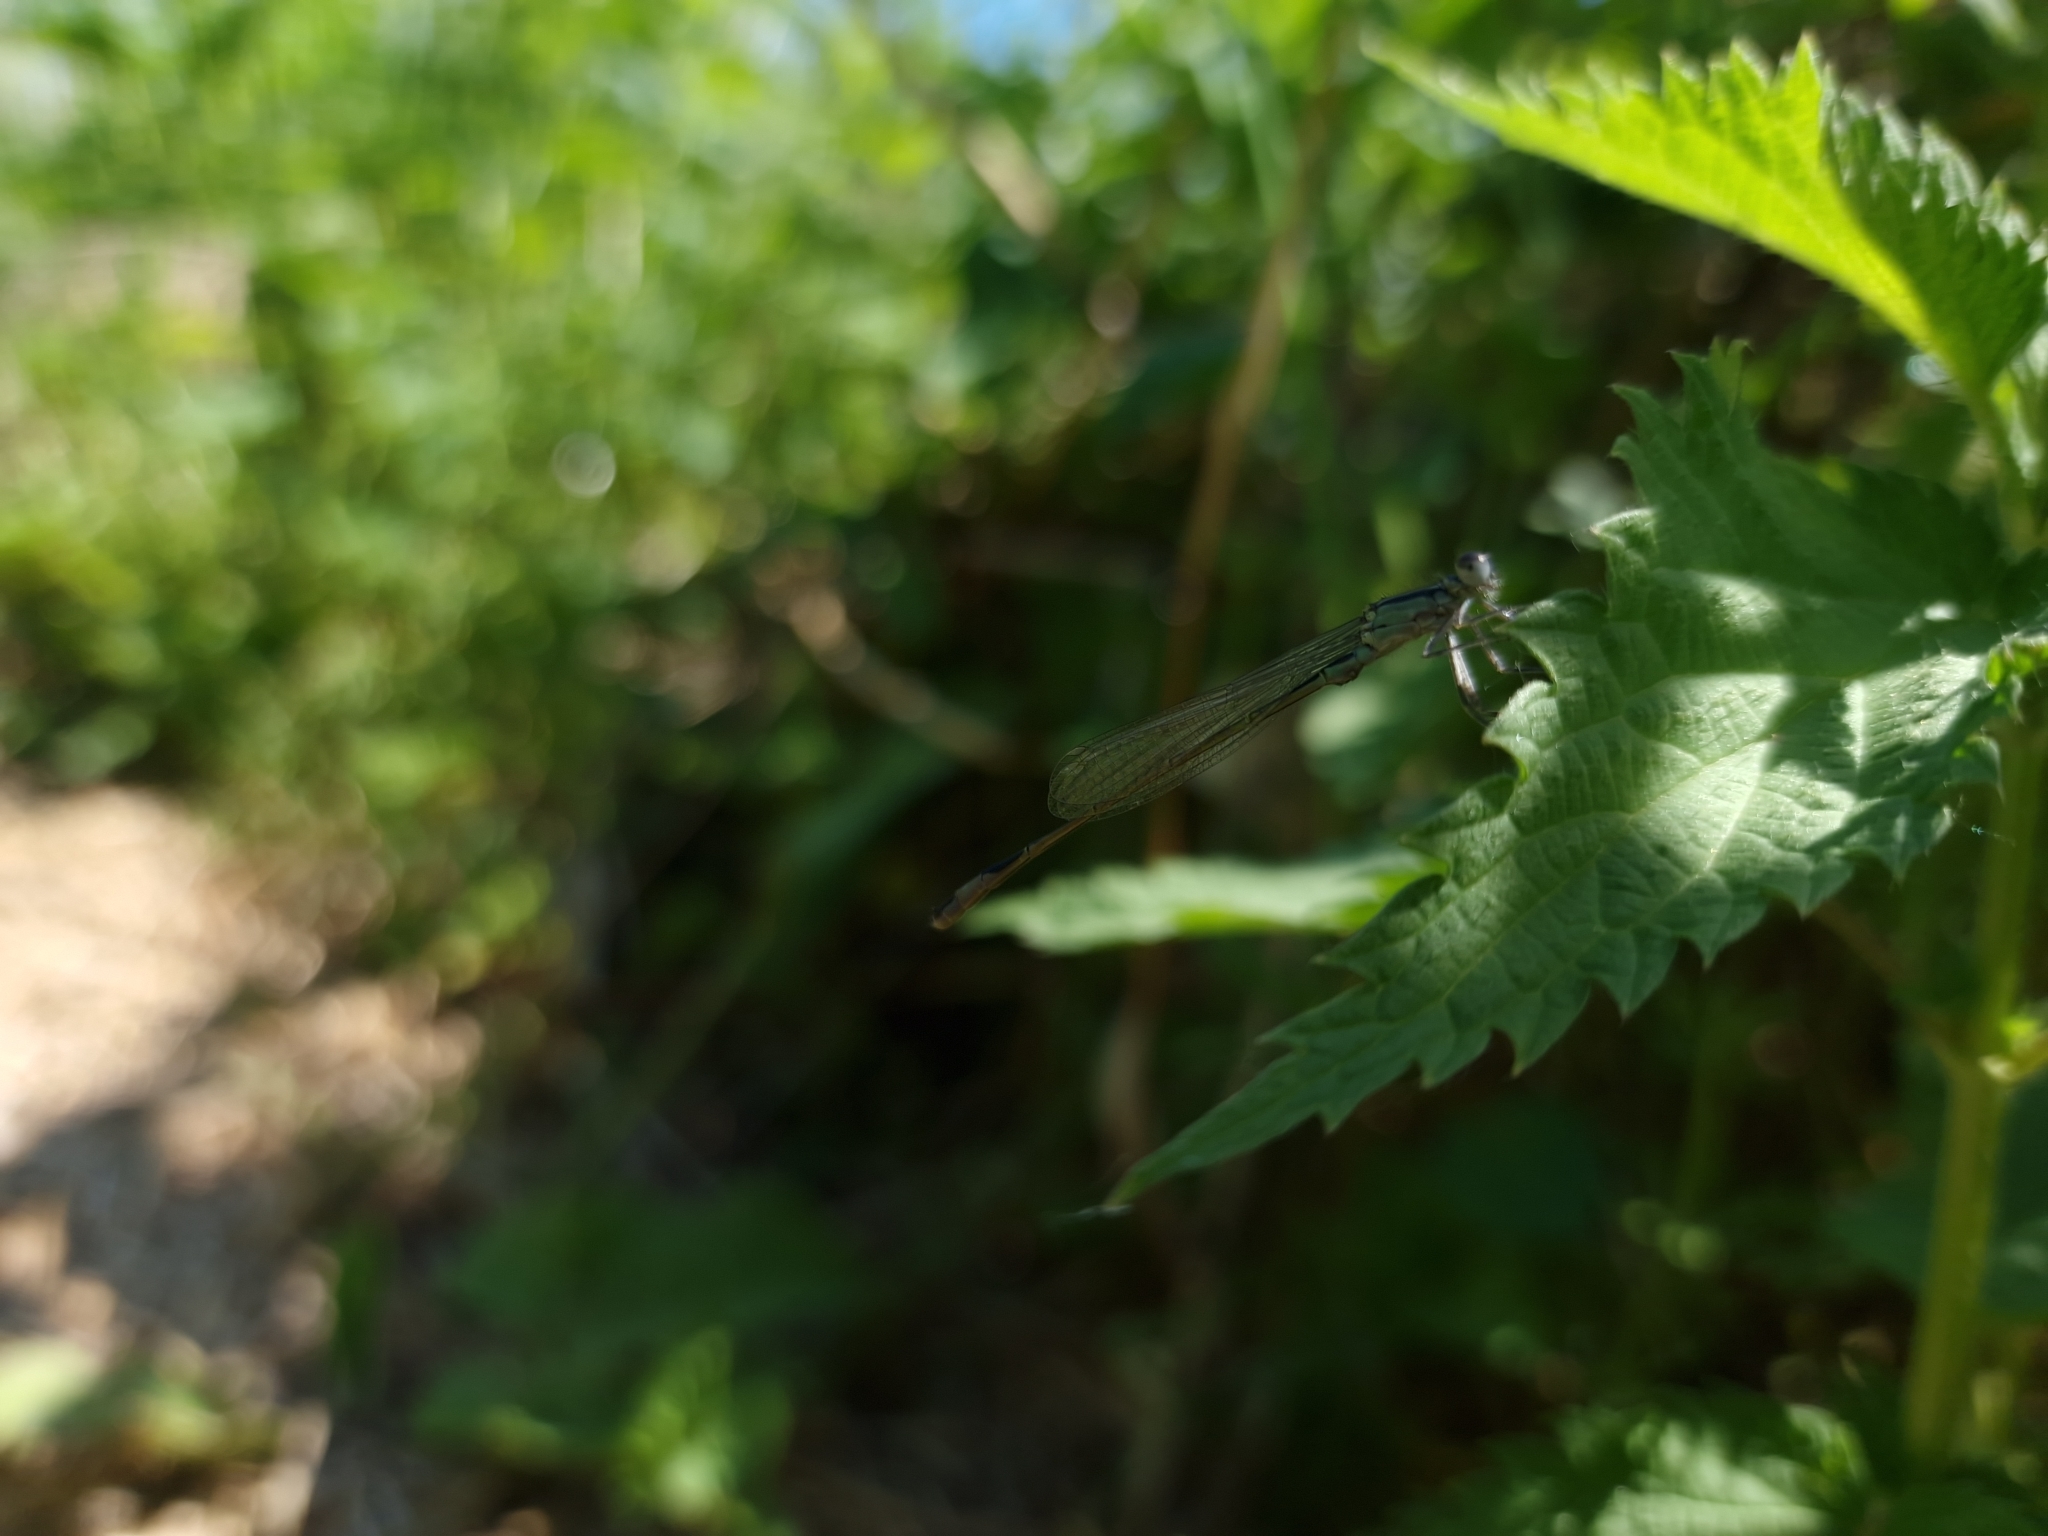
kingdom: Animalia
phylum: Arthropoda
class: Insecta
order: Odonata
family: Coenagrionidae
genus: Ischnura
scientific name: Ischnura elegans
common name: Blue-tailed damselfly
